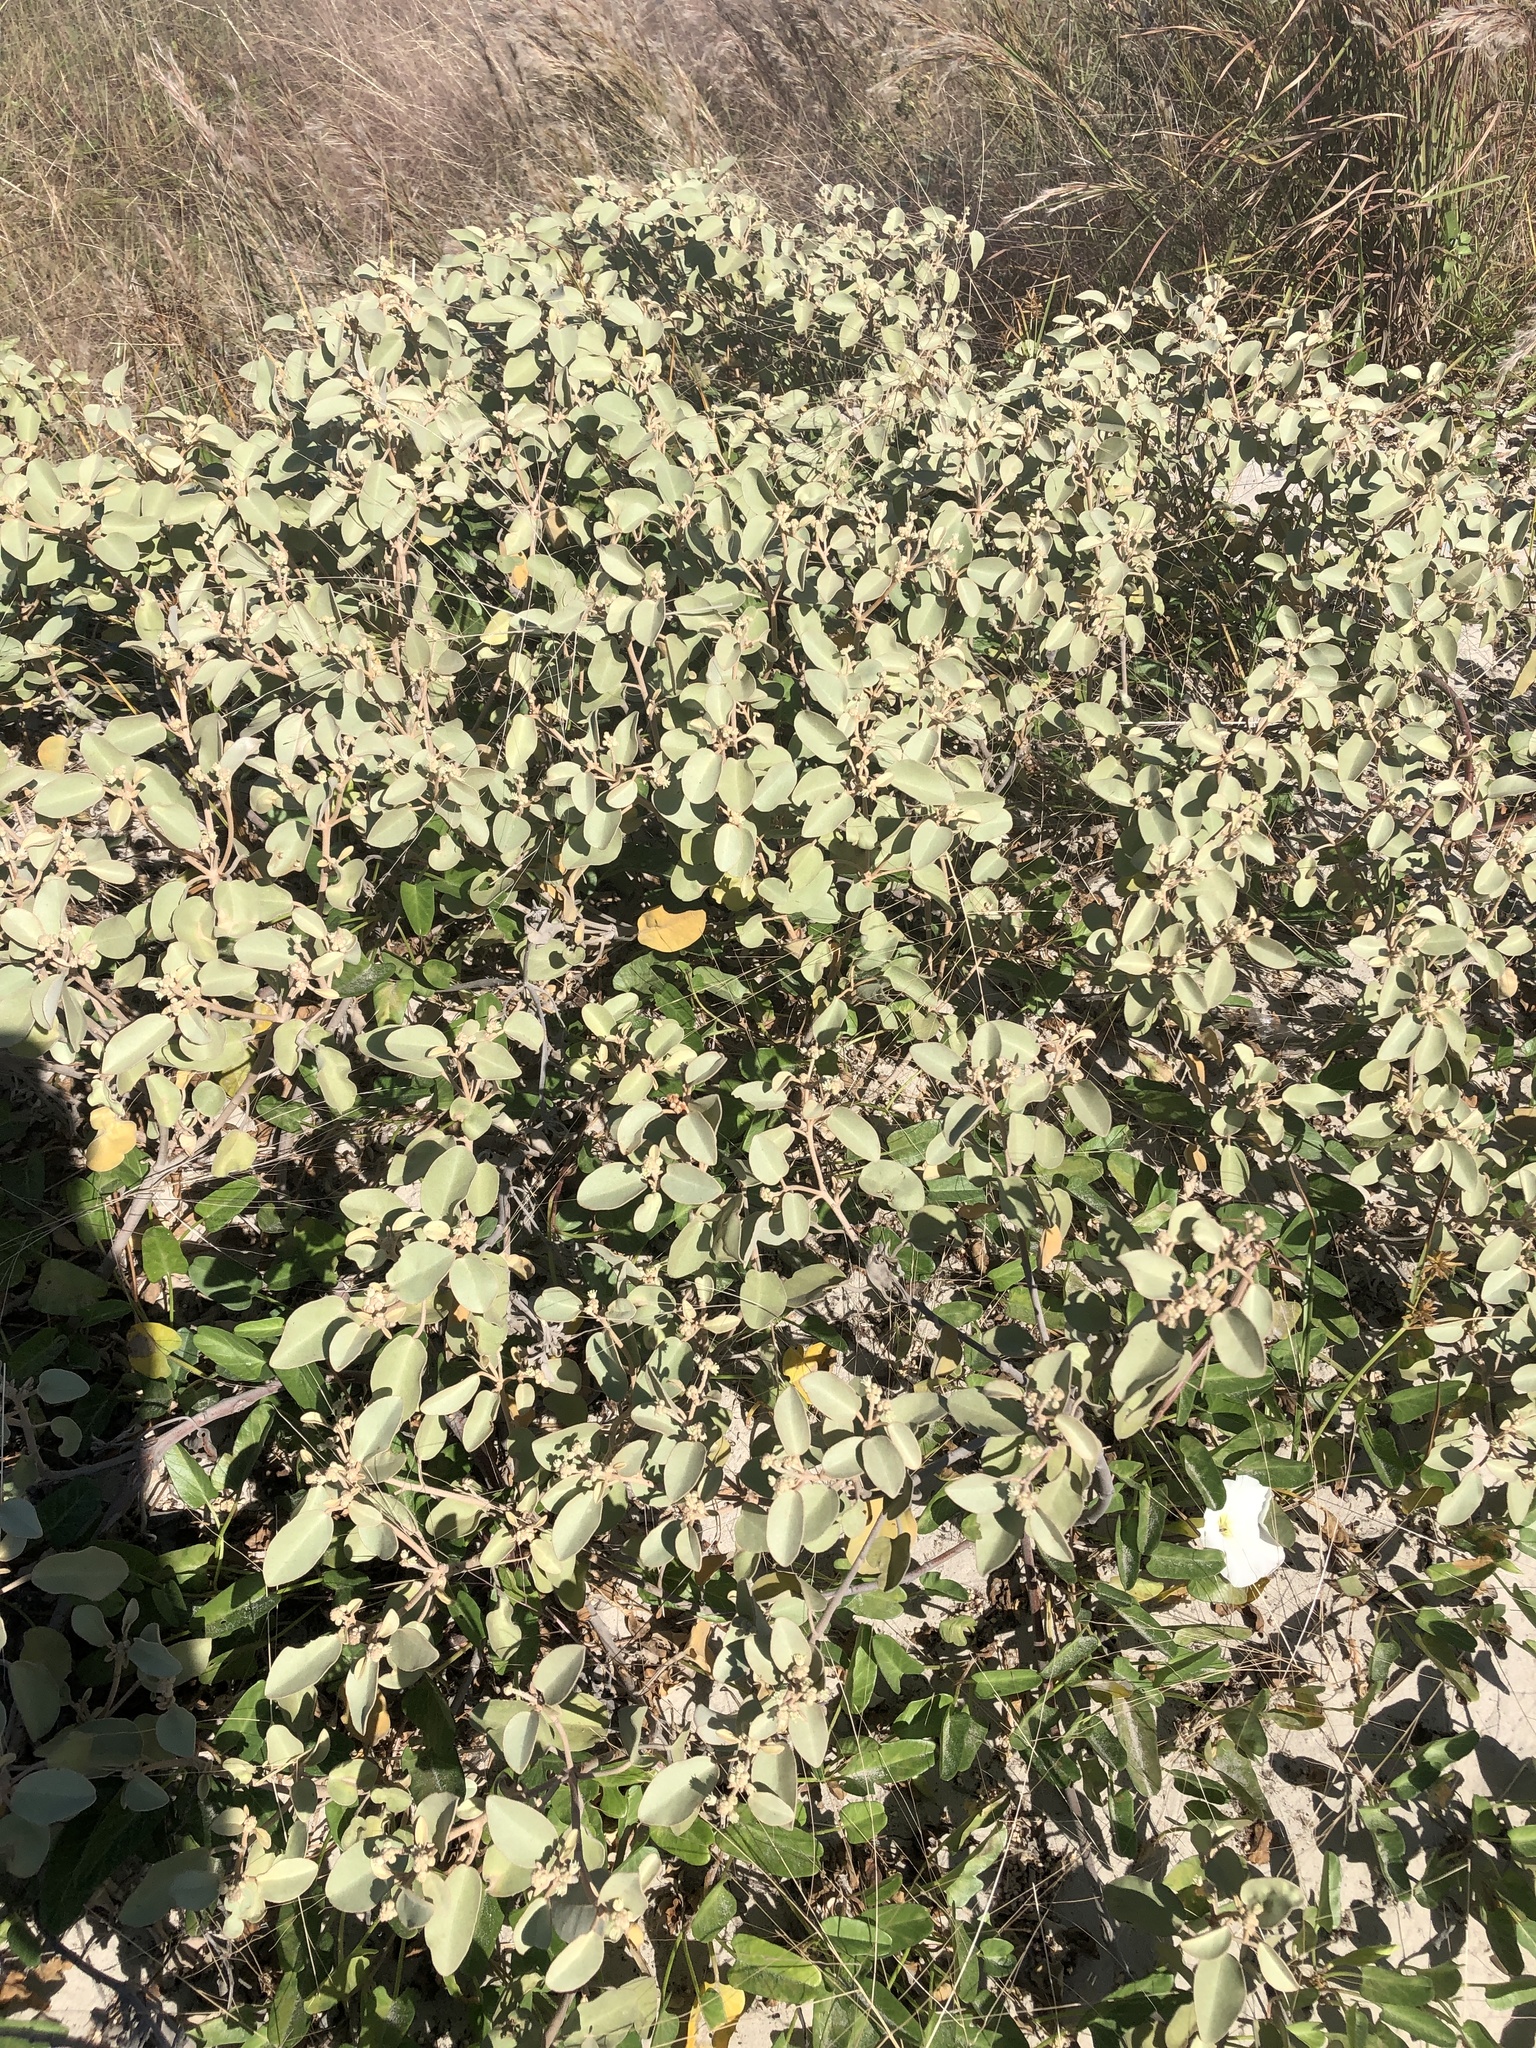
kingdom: Plantae
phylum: Tracheophyta
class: Magnoliopsida
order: Malpighiales
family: Euphorbiaceae
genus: Croton
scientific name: Croton punctatus
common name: Beach-tea
